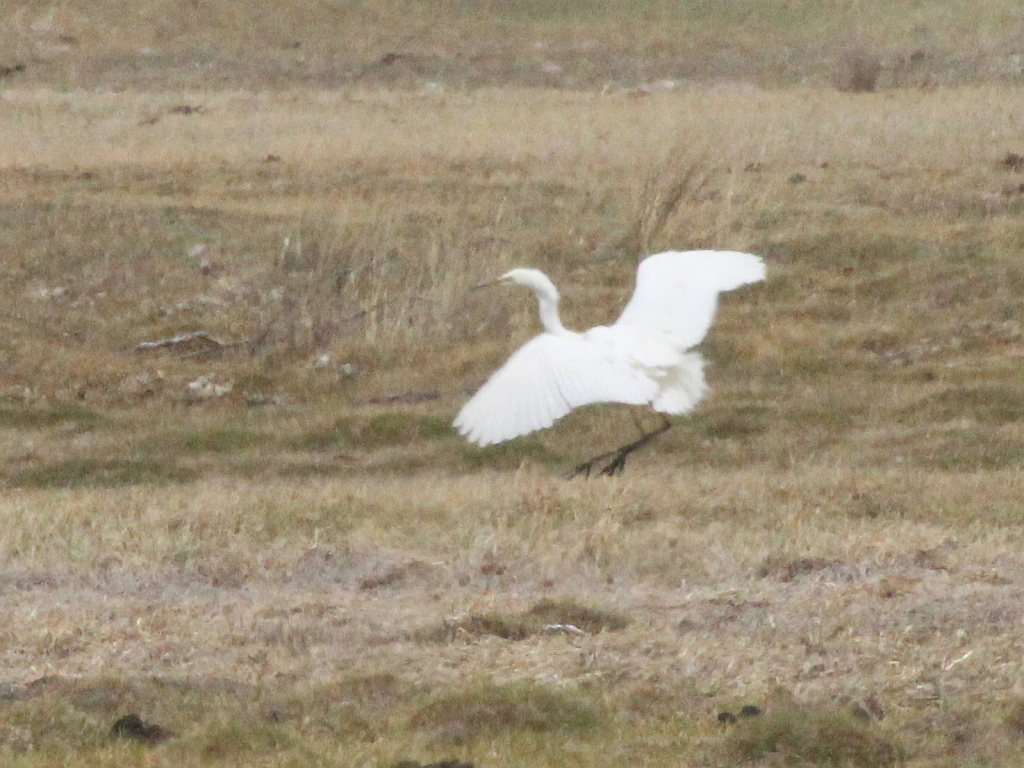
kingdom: Animalia
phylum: Chordata
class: Aves
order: Pelecaniformes
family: Ardeidae
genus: Ardea
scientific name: Ardea alba
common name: Great egret
